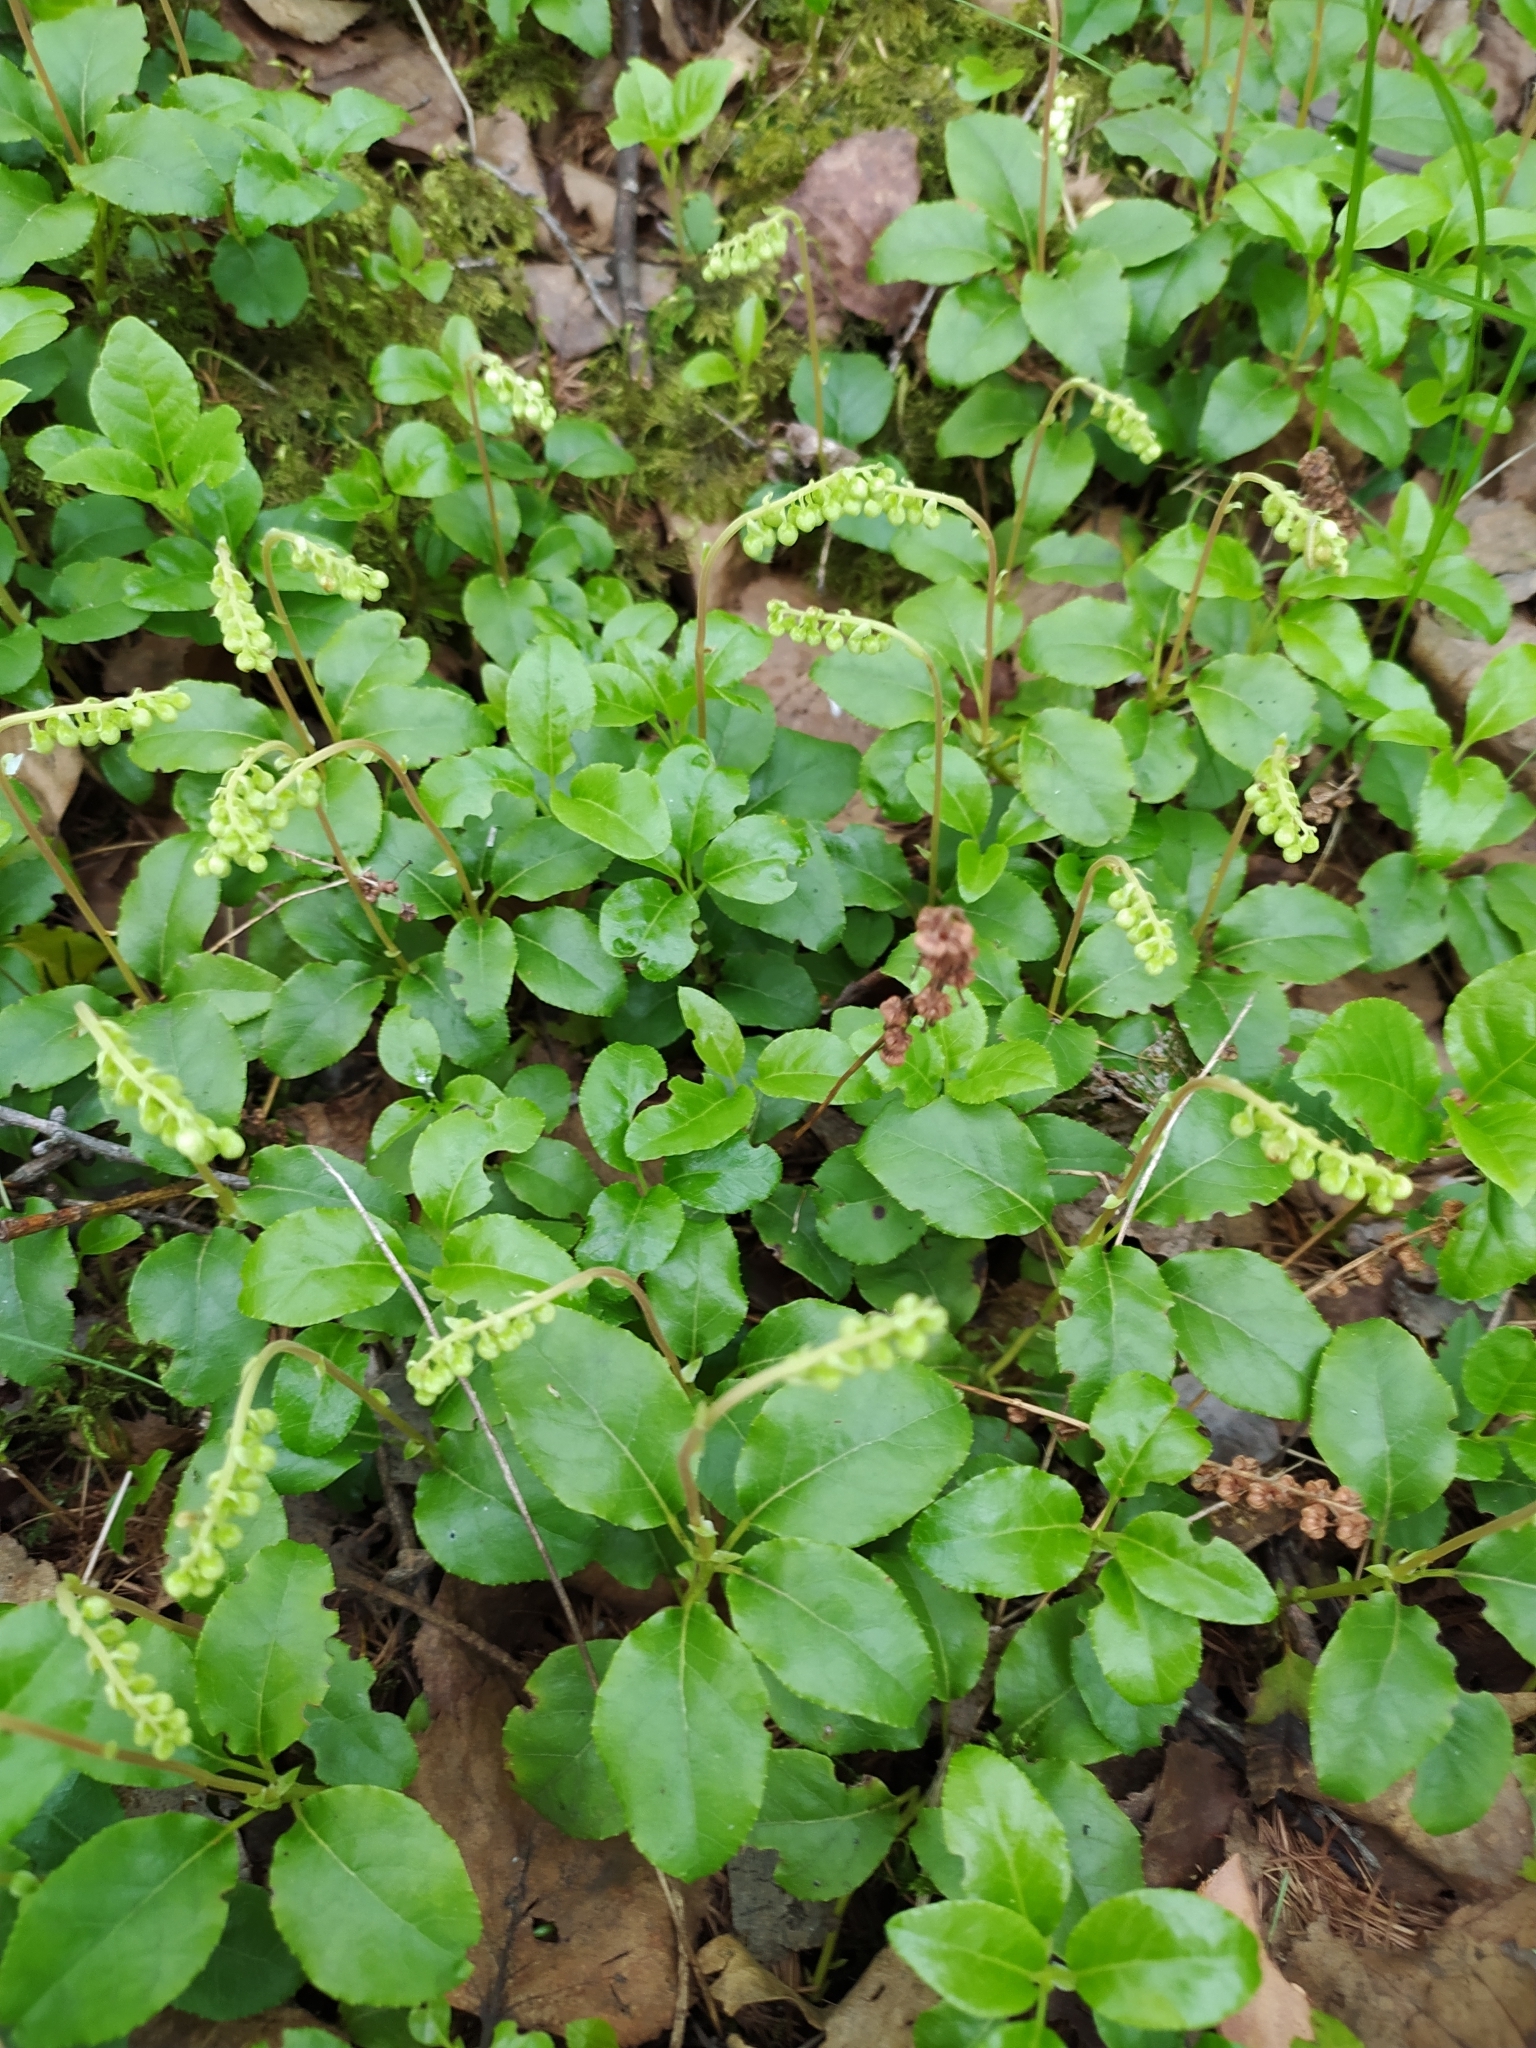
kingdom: Plantae
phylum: Tracheophyta
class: Magnoliopsida
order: Ericales
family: Ericaceae
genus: Orthilia
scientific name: Orthilia secunda
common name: One-sided orthilia
